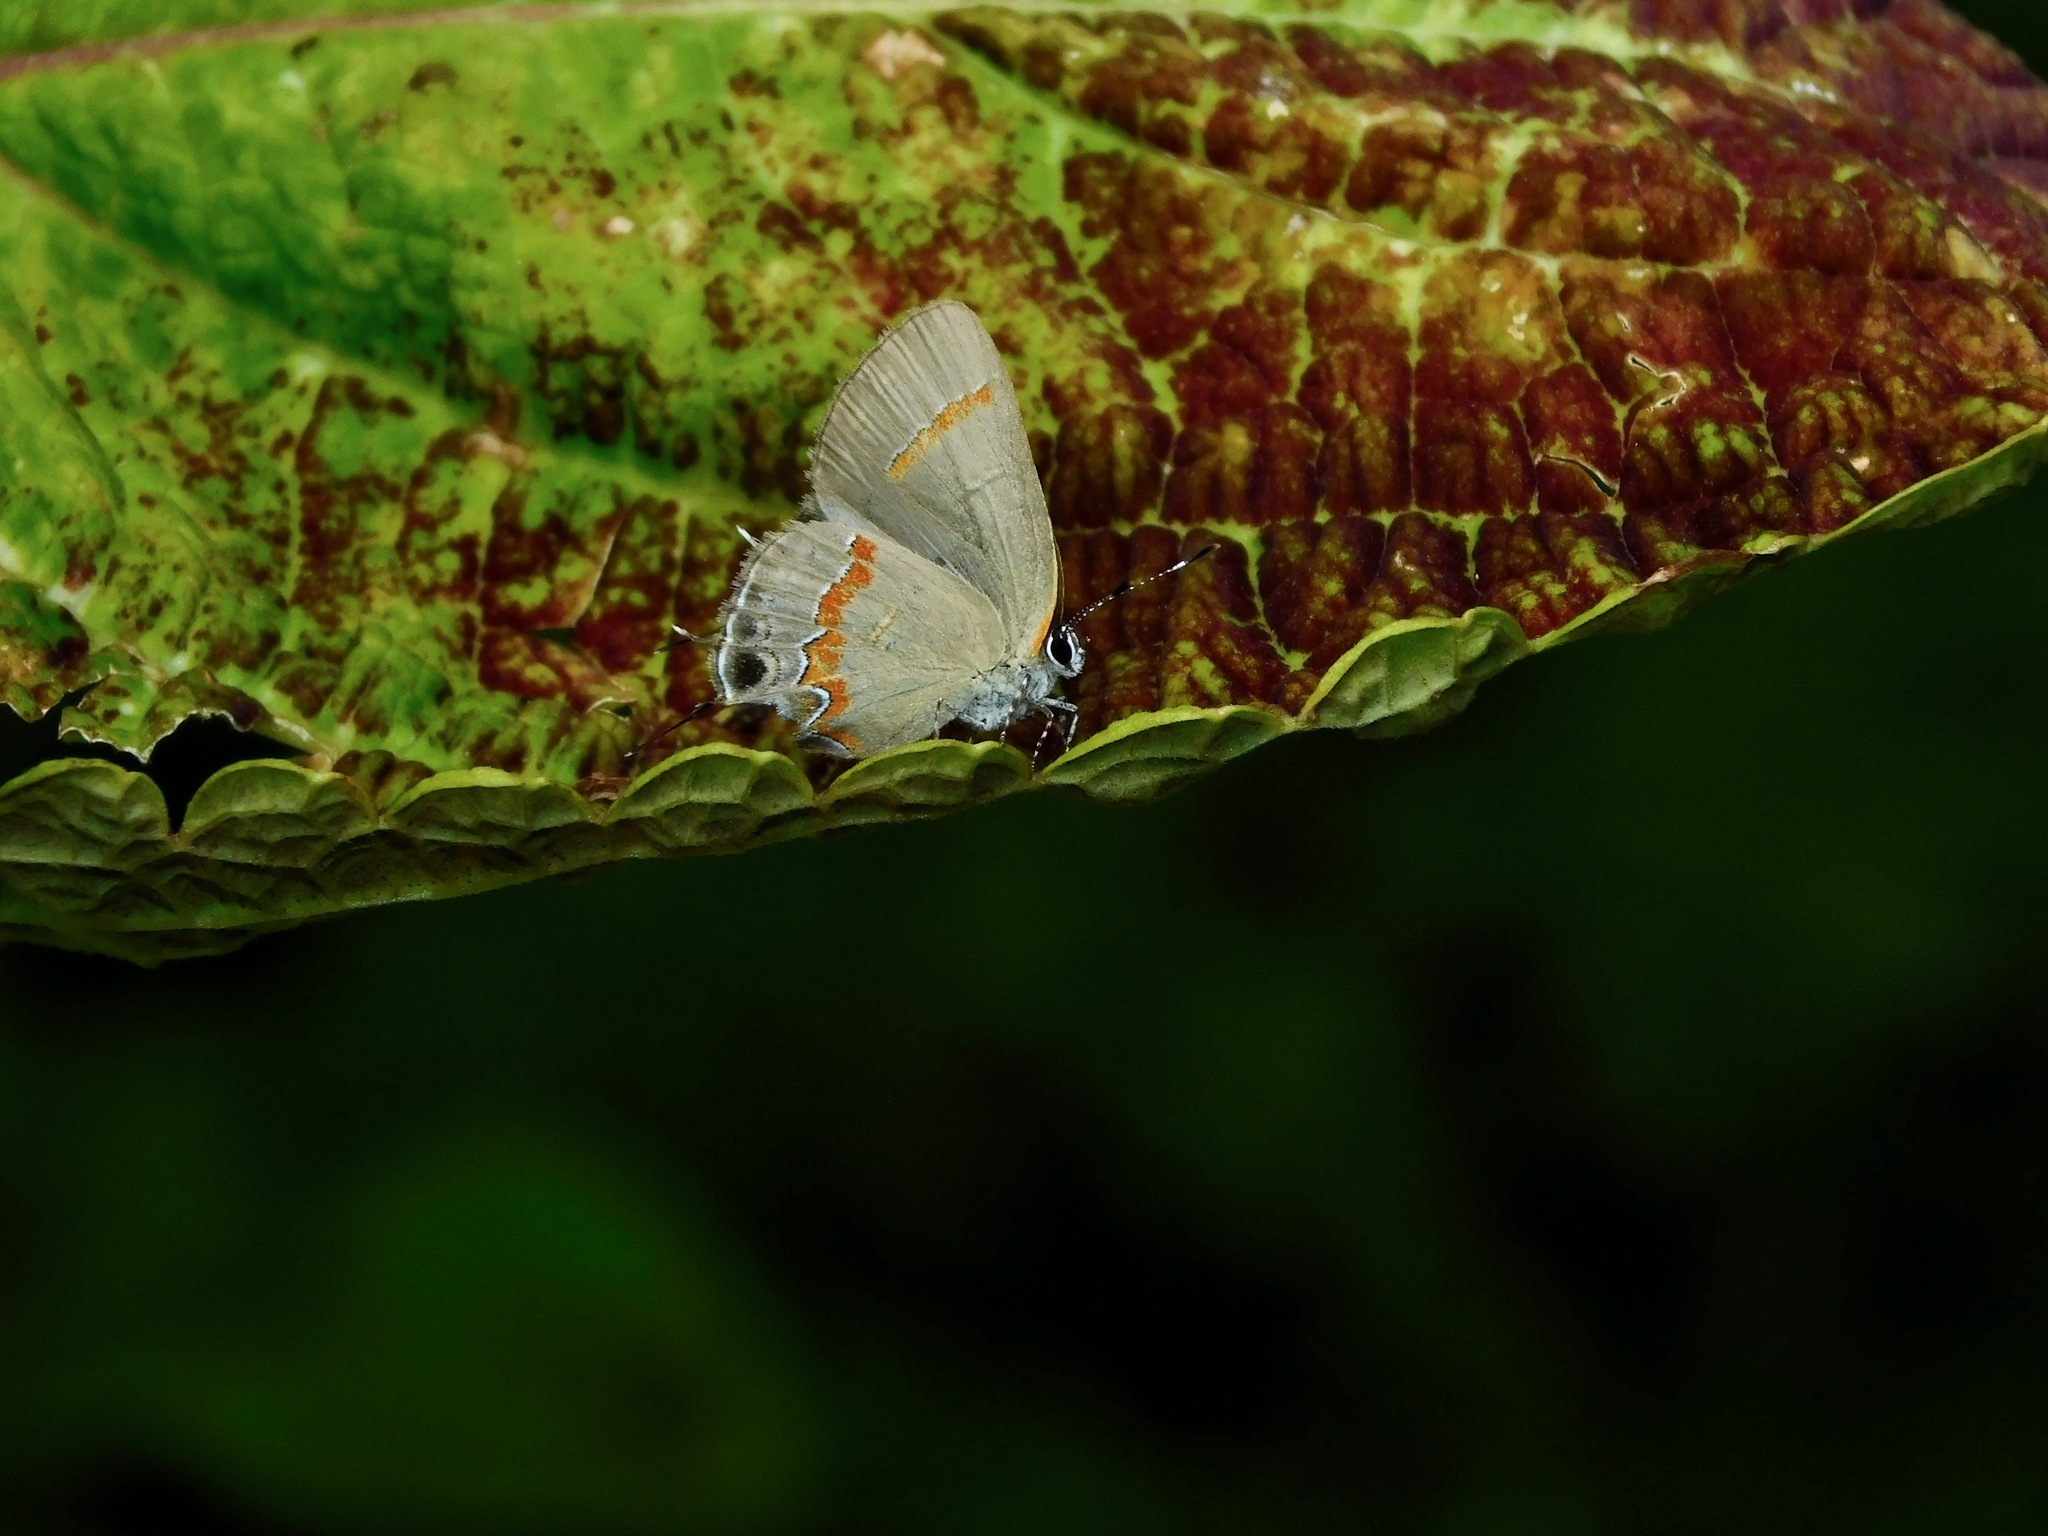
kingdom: Animalia
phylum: Arthropoda
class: Insecta
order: Lepidoptera
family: Lycaenidae
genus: Calycopis
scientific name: Calycopis cecrops
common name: Red-banded hairstreak
